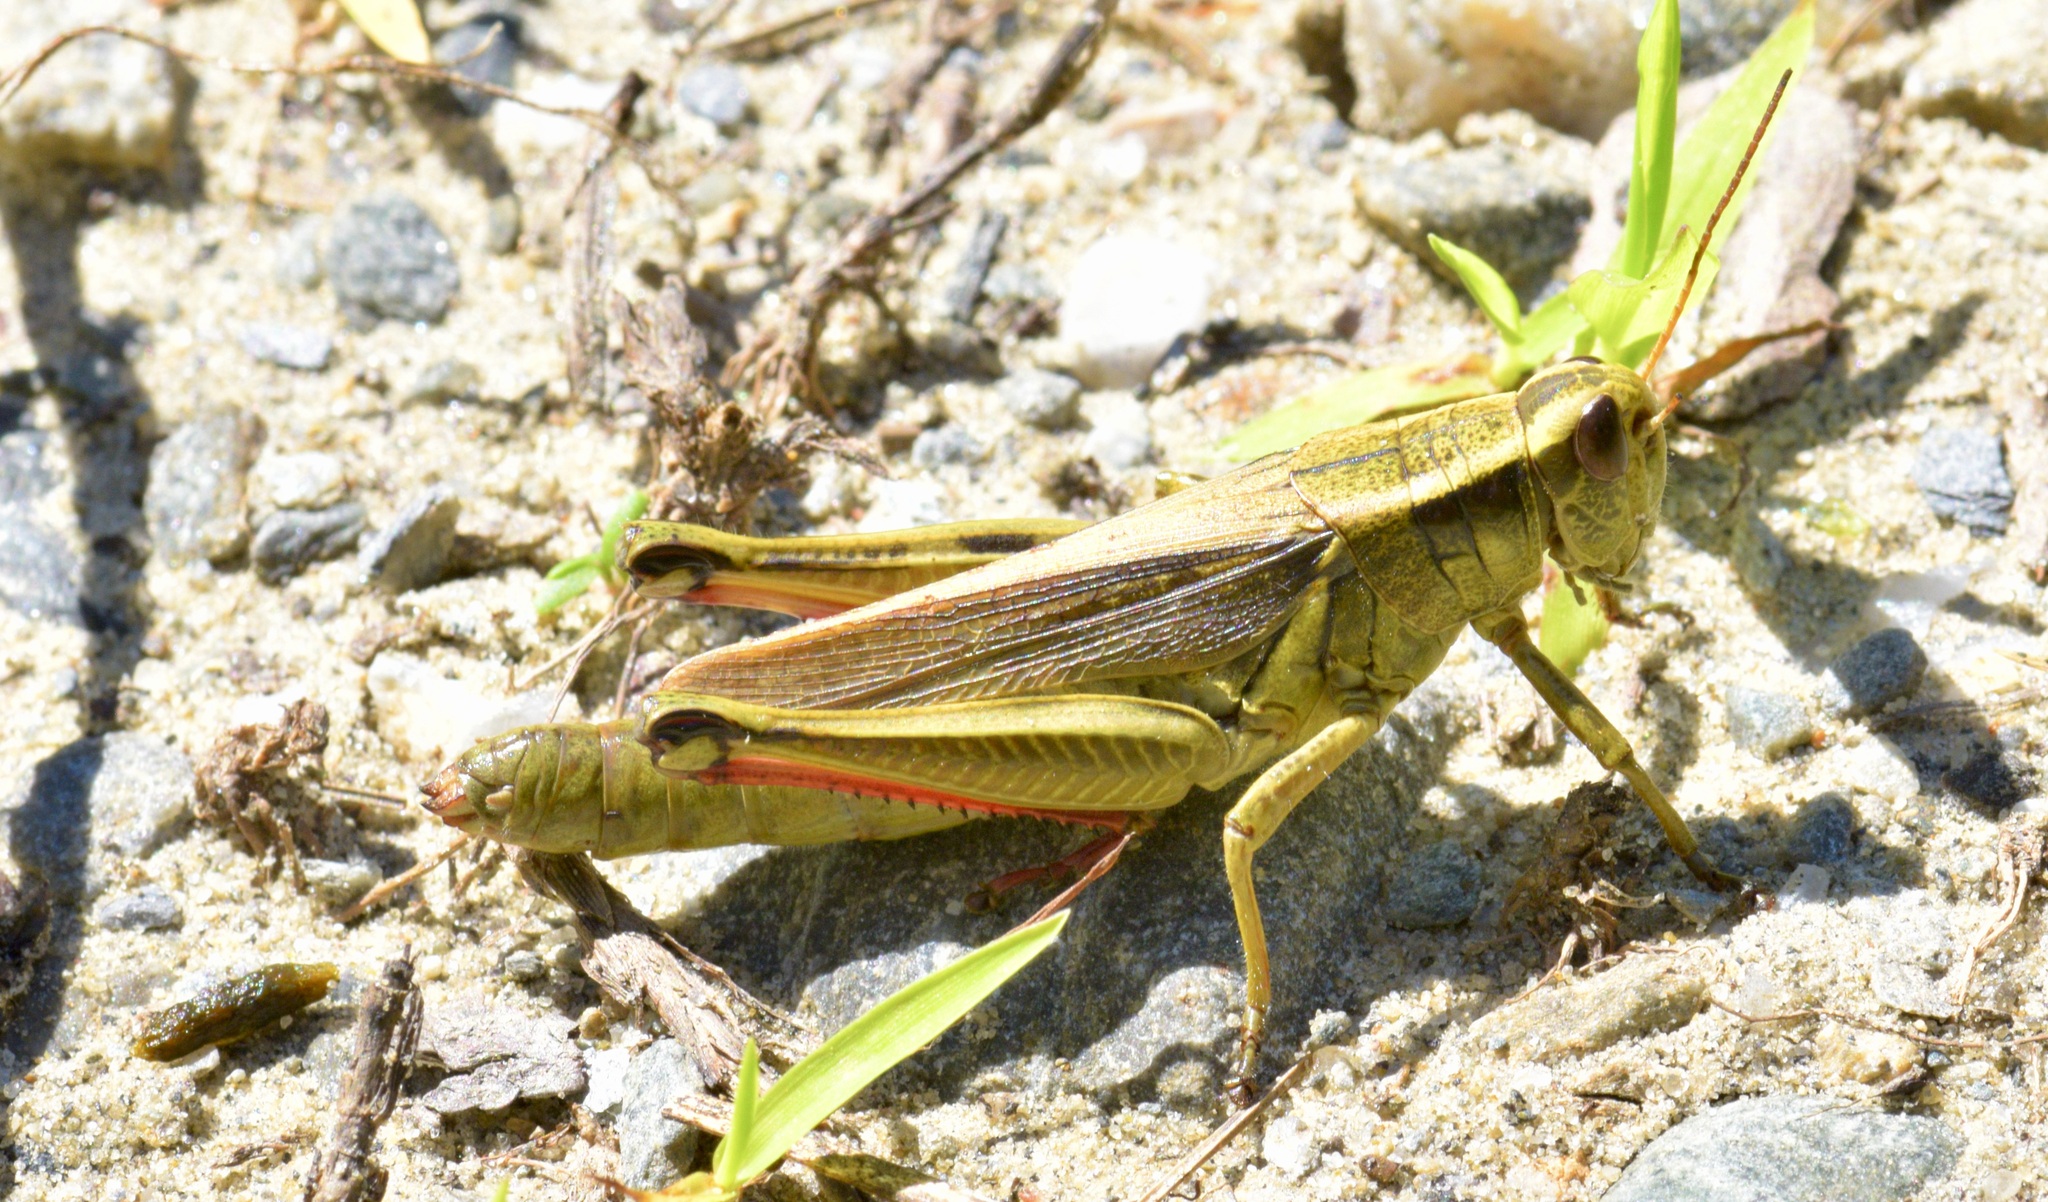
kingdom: Animalia
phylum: Arthropoda
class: Insecta
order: Orthoptera
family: Acrididae
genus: Melanoplus
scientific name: Melanoplus bivittatus
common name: Two-striped grasshopper
